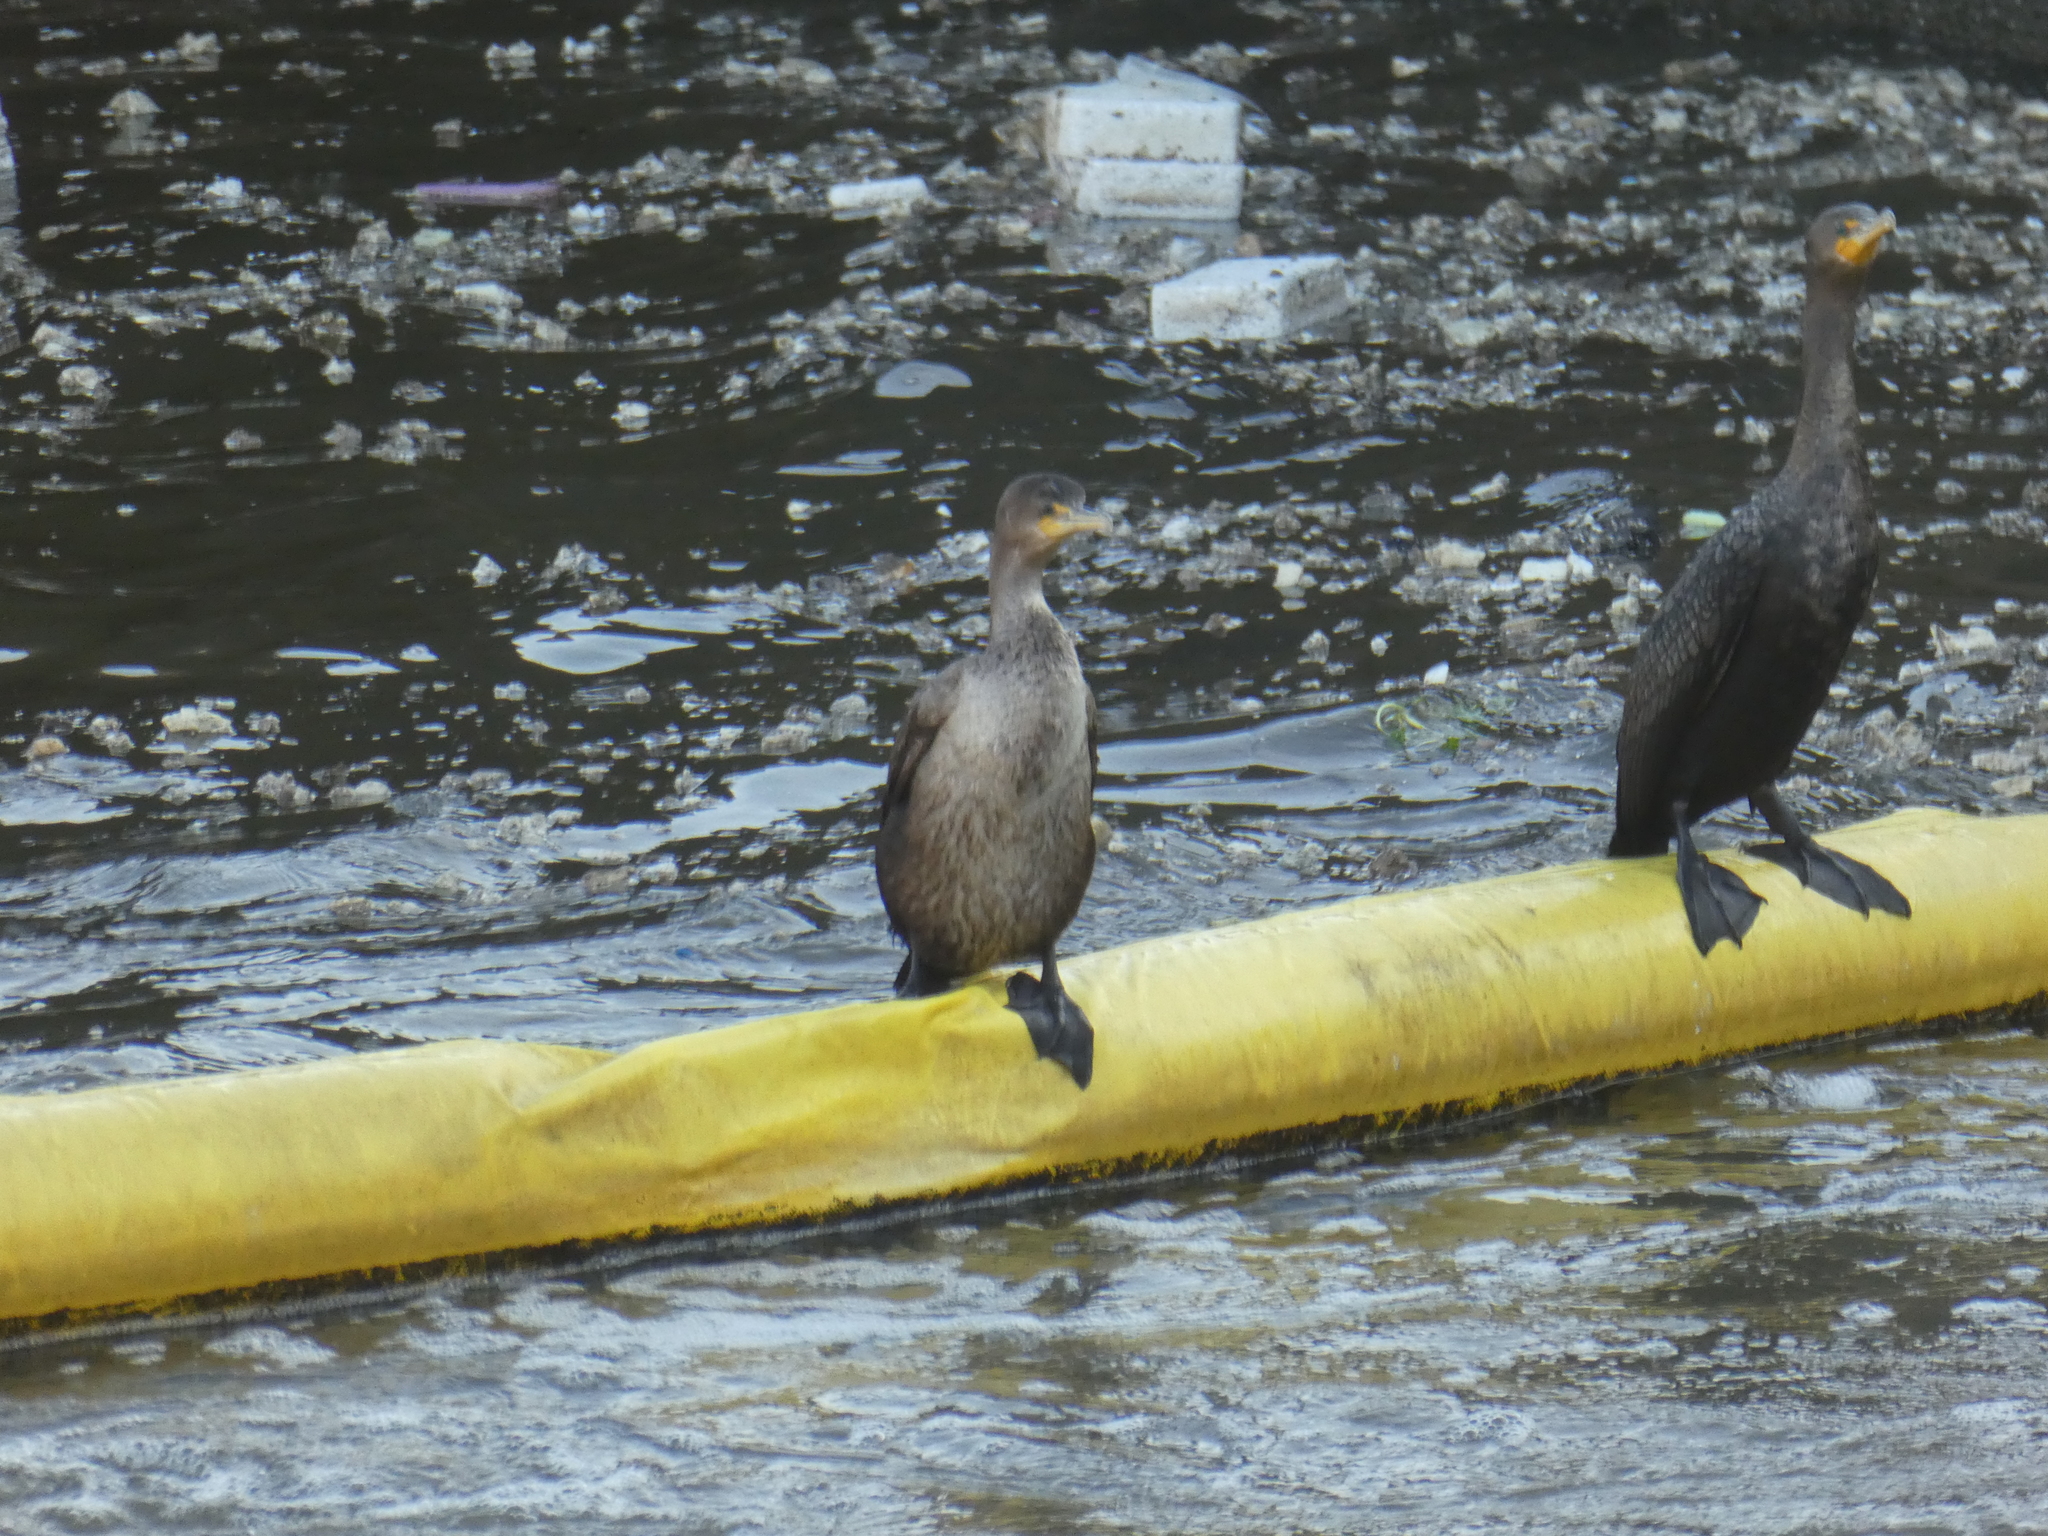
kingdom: Animalia
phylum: Chordata
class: Aves
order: Suliformes
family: Phalacrocoracidae
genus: Phalacrocorax
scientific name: Phalacrocorax auritus
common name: Double-crested cormorant
